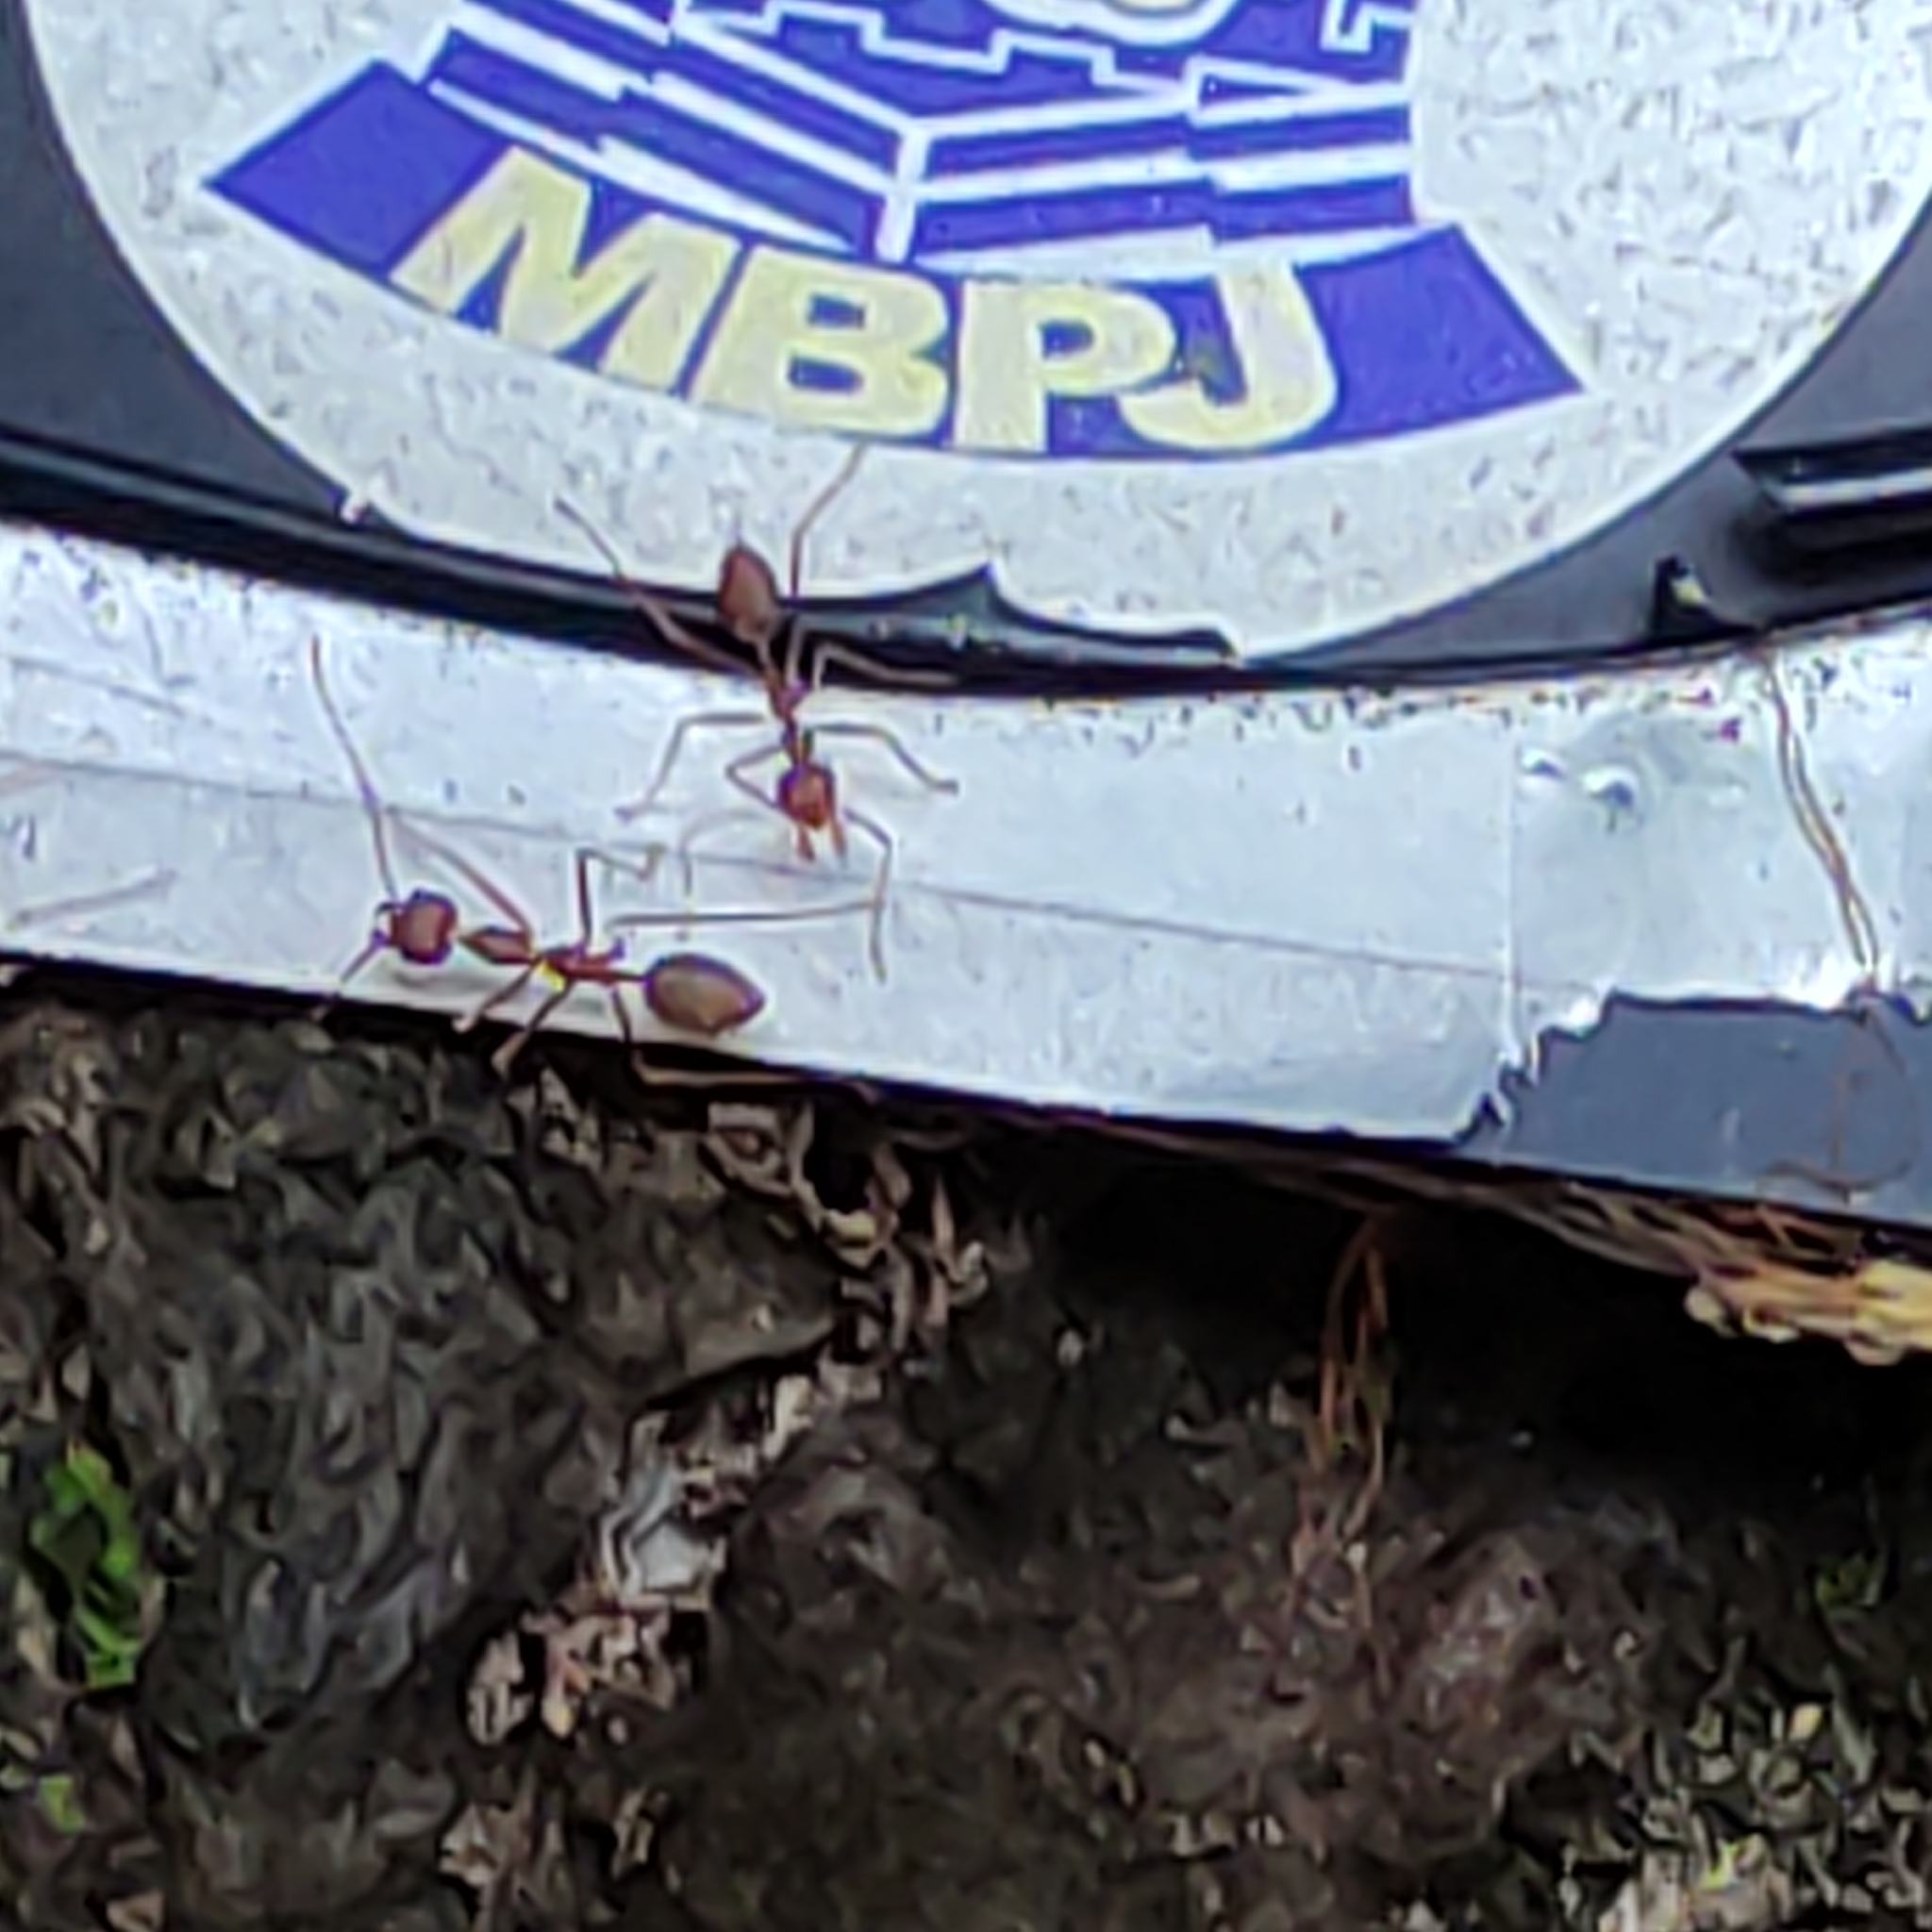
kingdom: Animalia
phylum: Arthropoda
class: Insecta
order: Hymenoptera
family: Formicidae
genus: Oecophylla
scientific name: Oecophylla smaragdina
